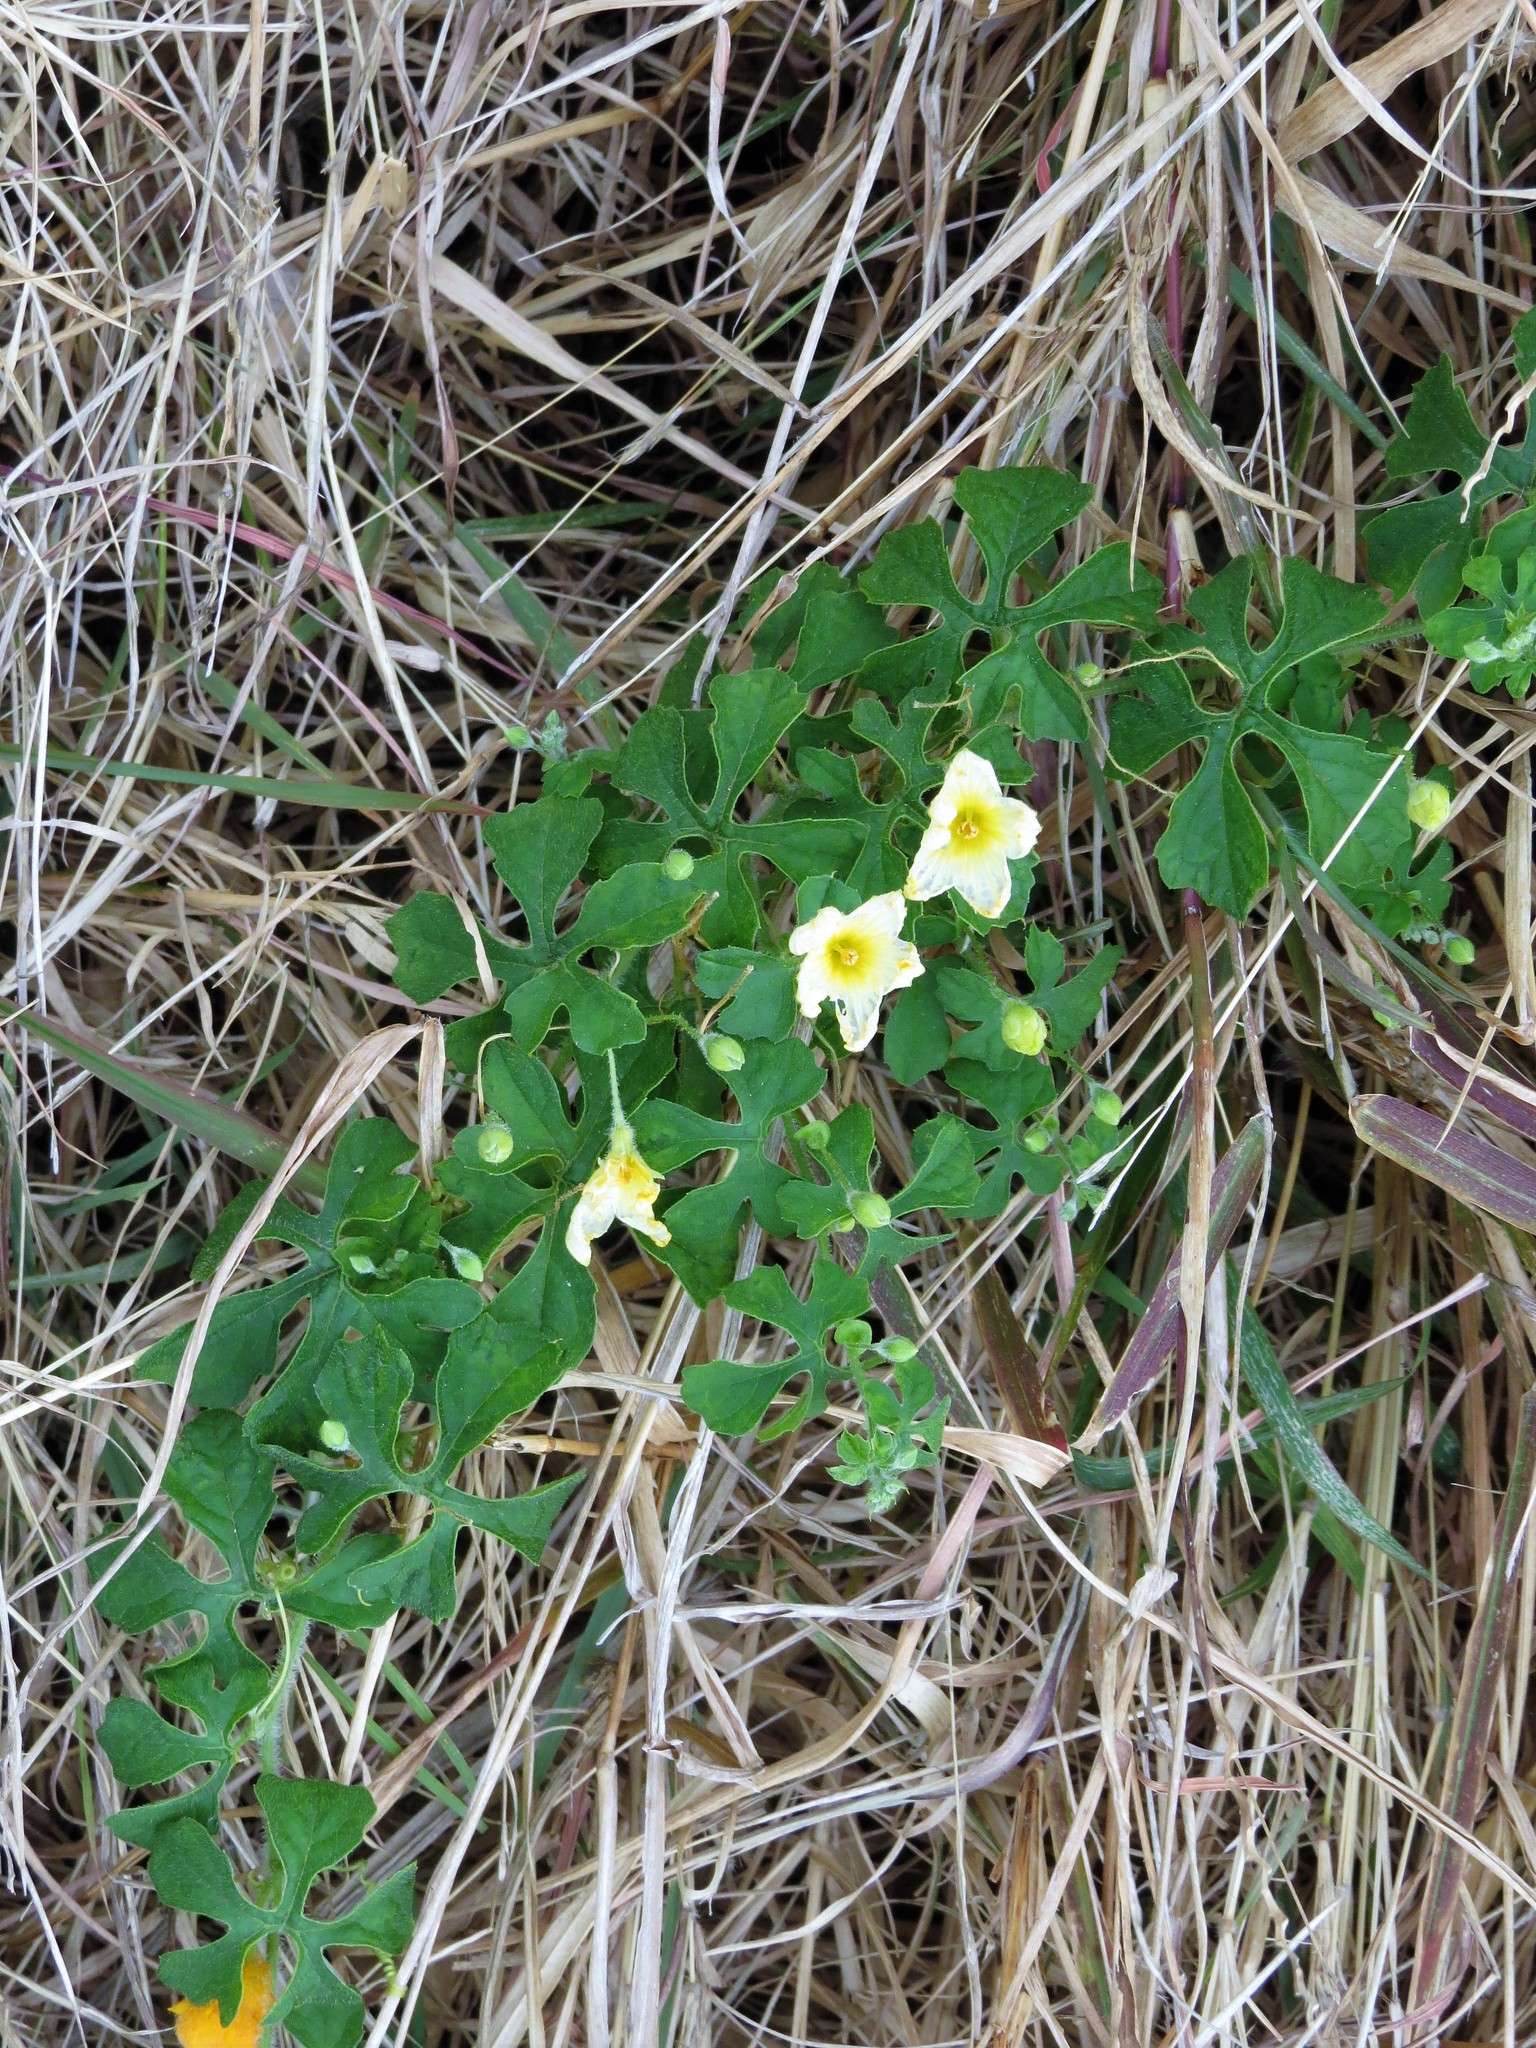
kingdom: Plantae
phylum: Tracheophyta
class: Magnoliopsida
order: Cucurbitales
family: Cucurbitaceae
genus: Momordica
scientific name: Momordica charantia
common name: Balsampear
